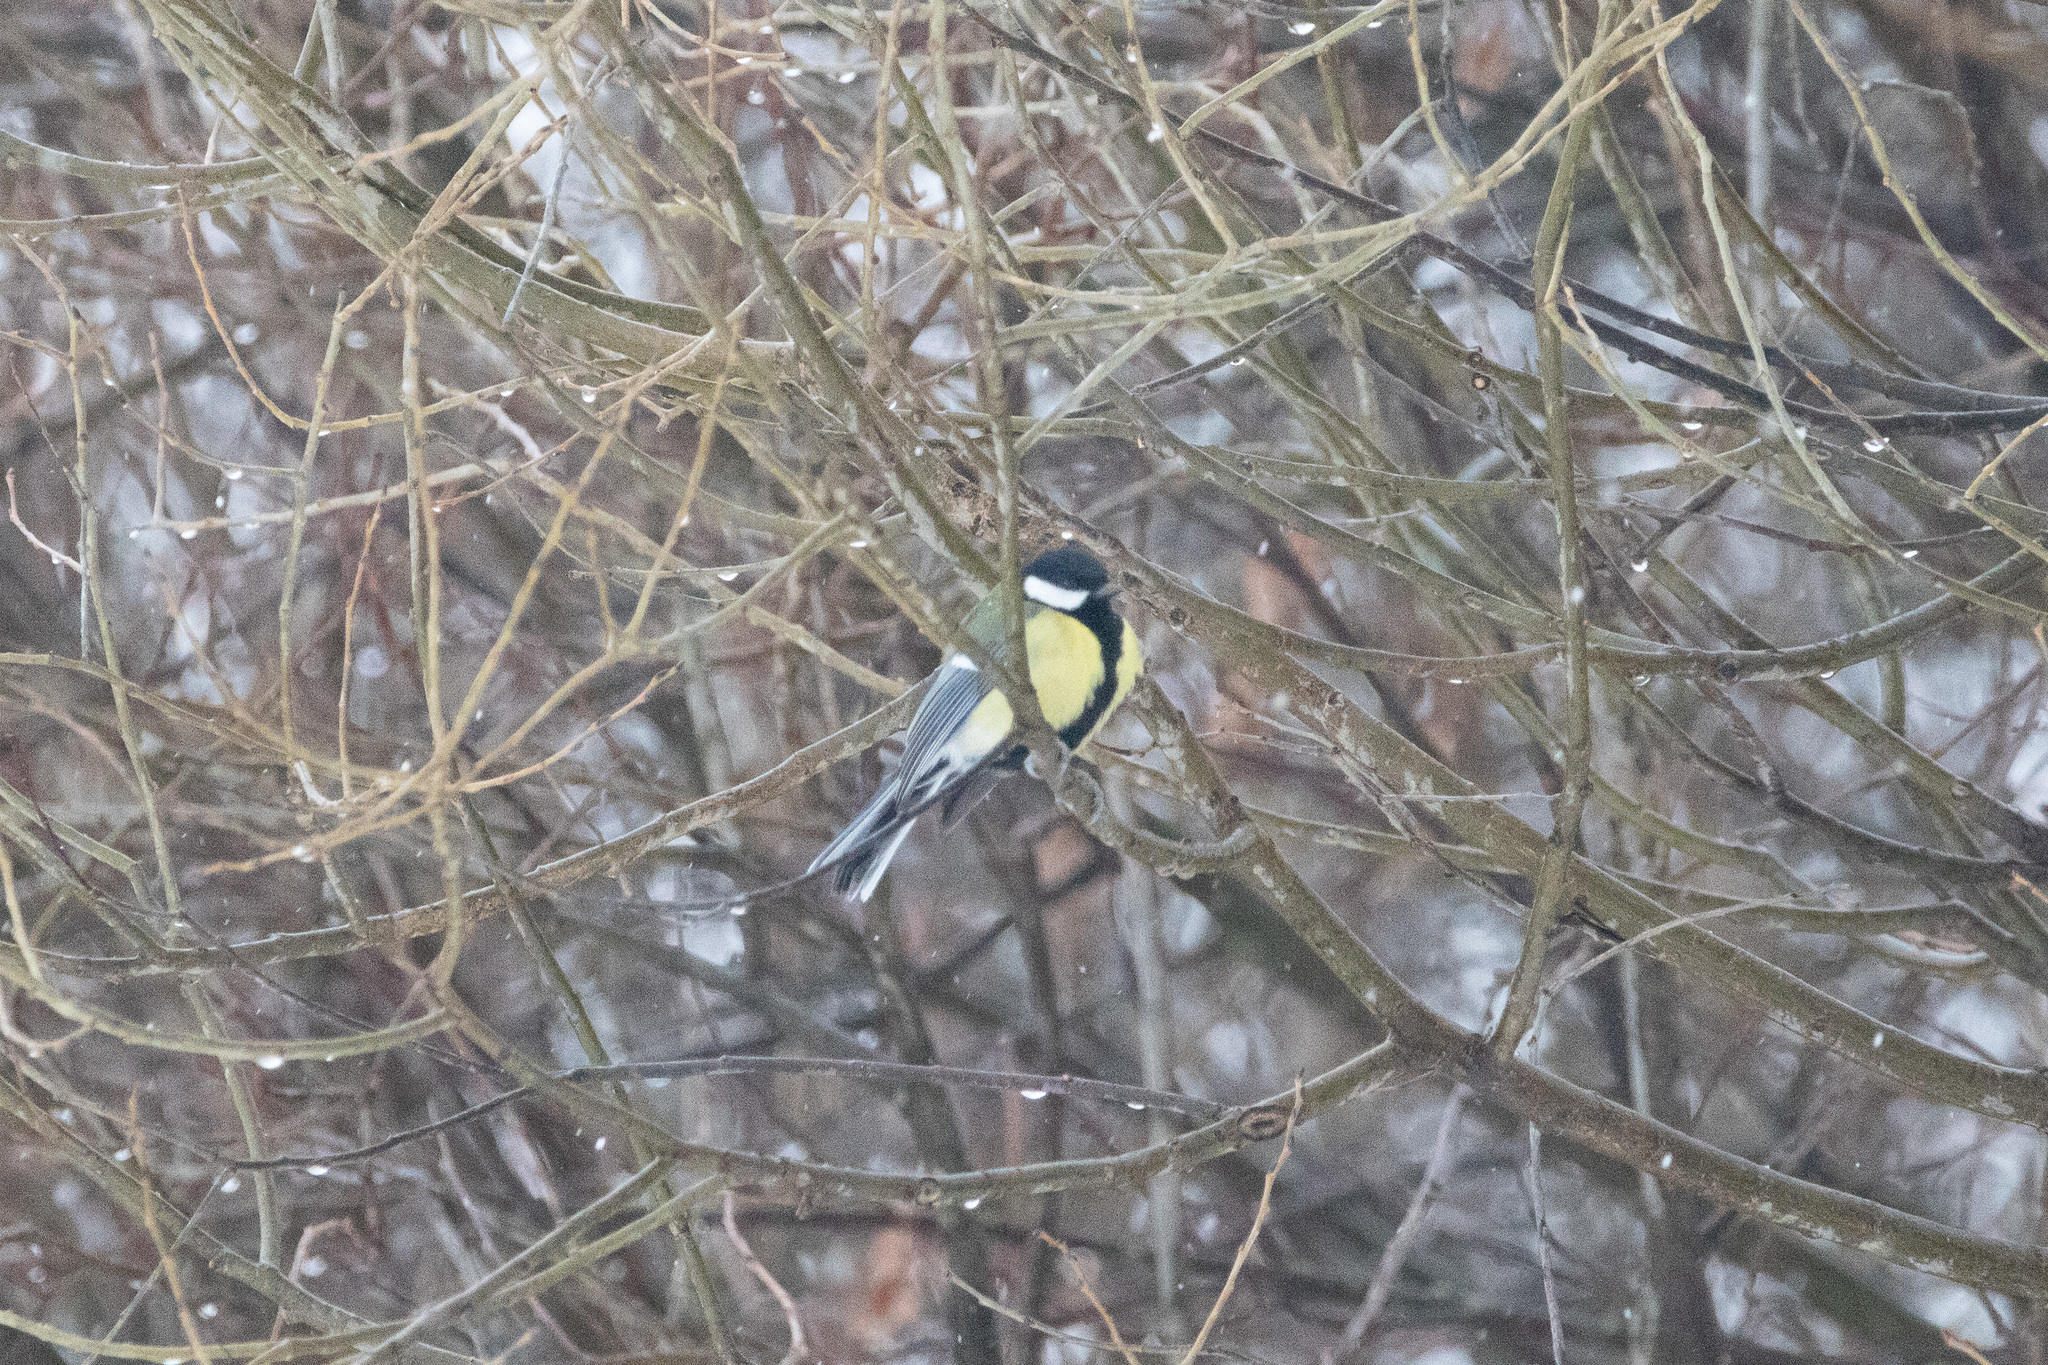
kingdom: Animalia
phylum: Chordata
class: Aves
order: Passeriformes
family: Paridae
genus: Parus
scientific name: Parus major
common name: Great tit
